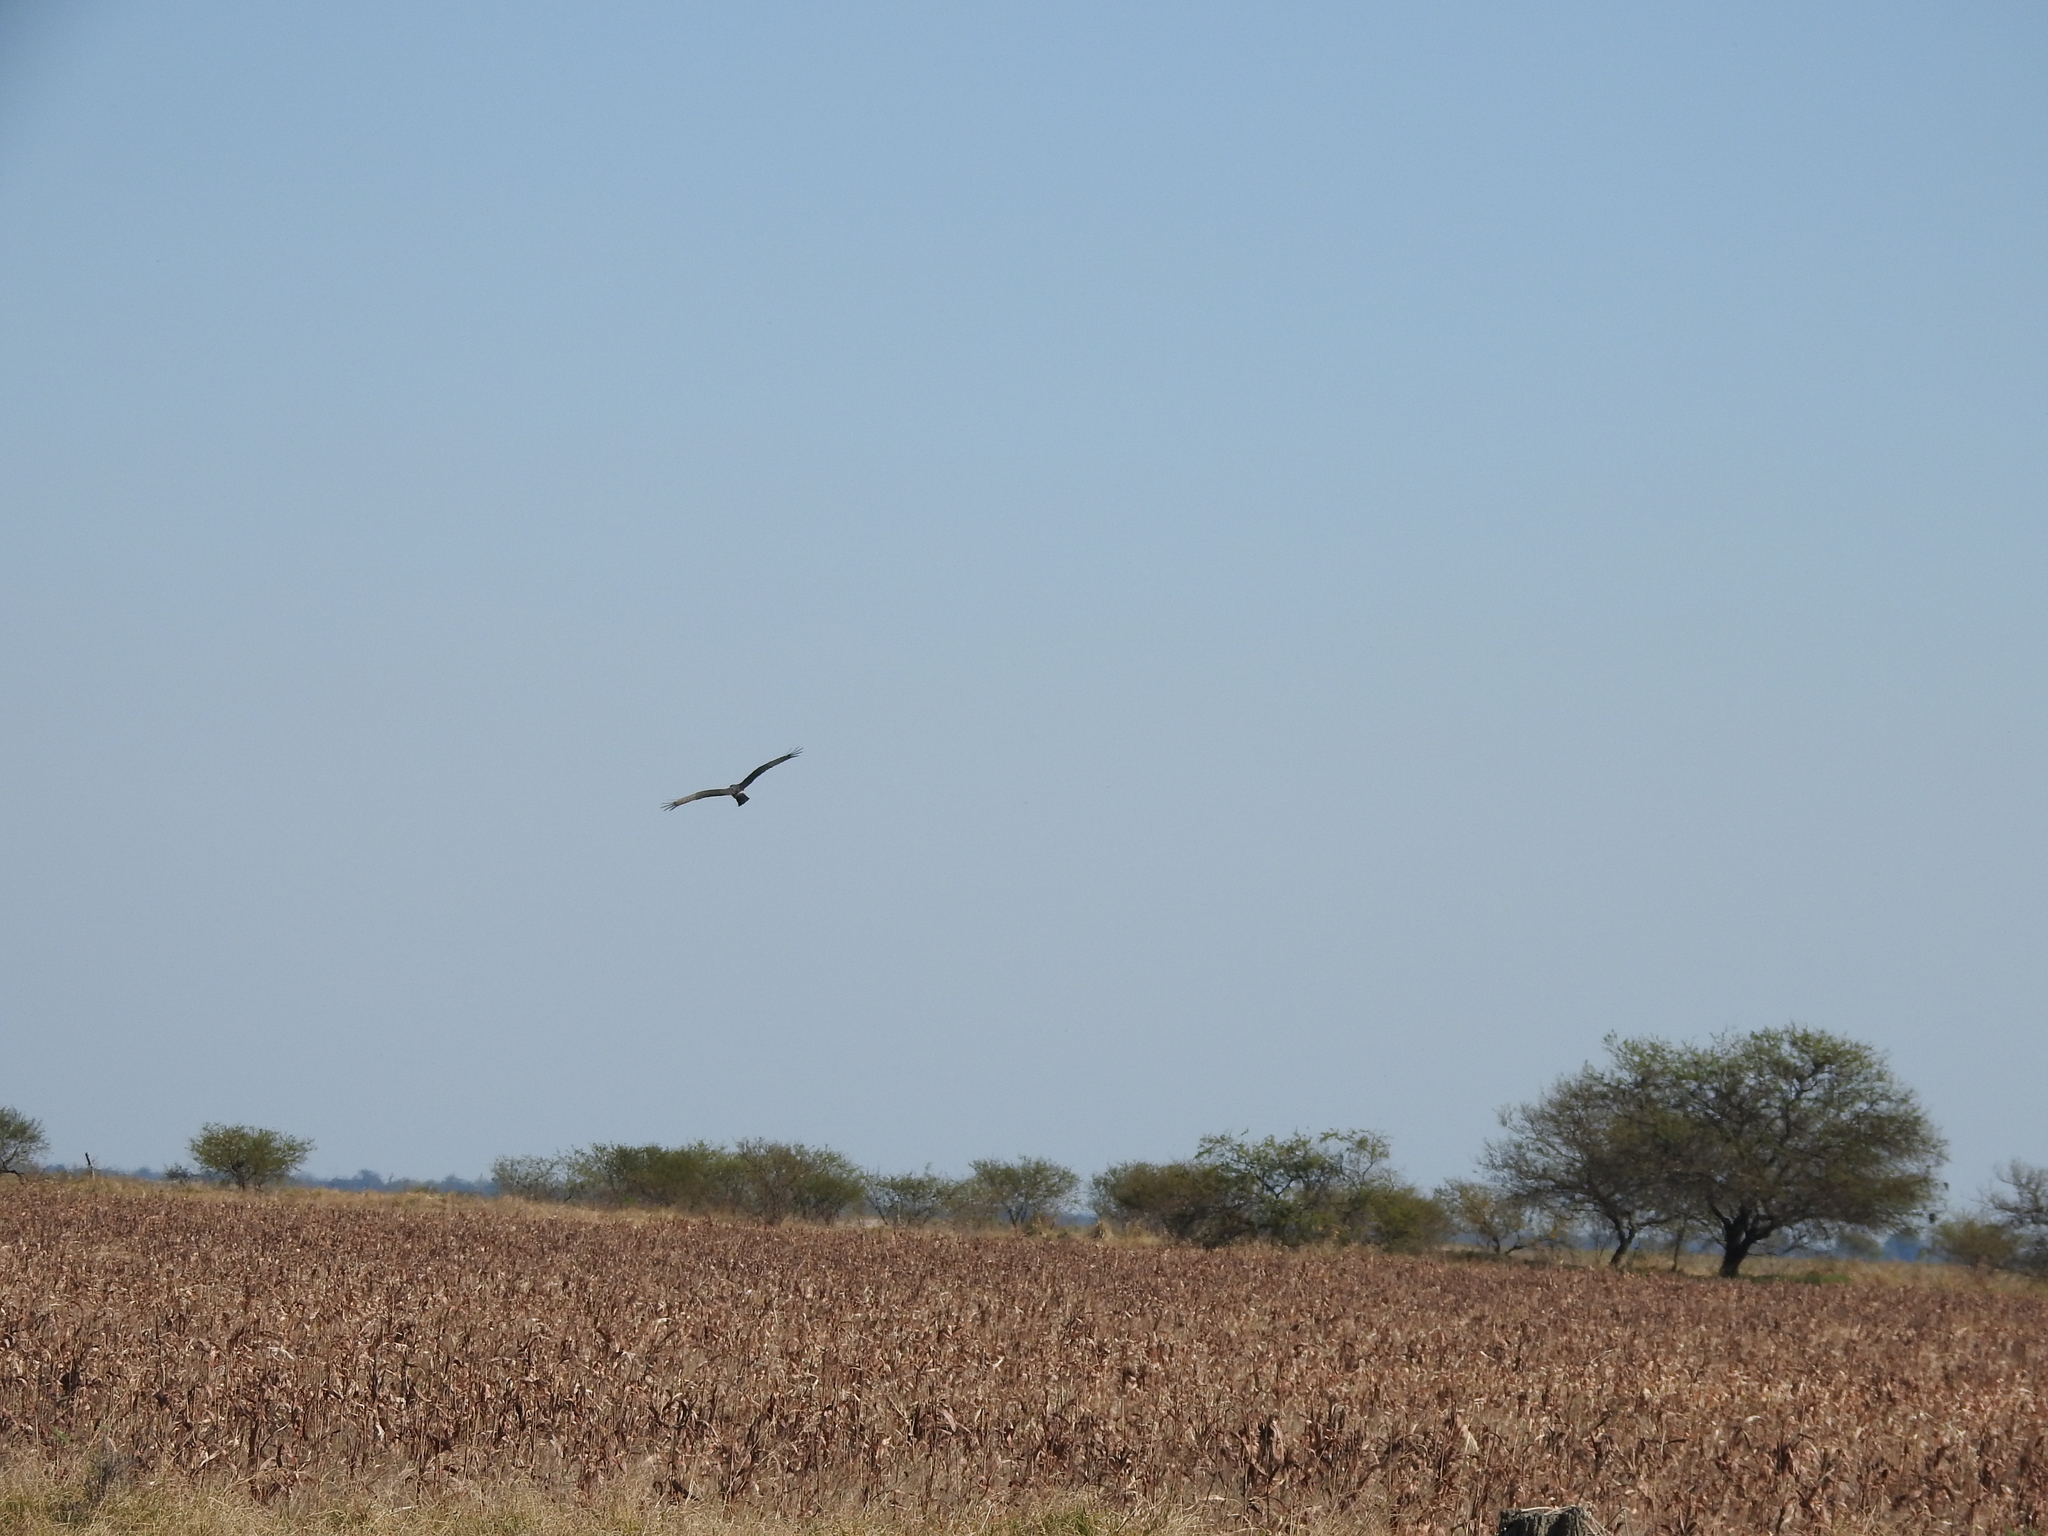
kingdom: Animalia
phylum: Chordata
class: Aves
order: Accipitriformes
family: Accipitridae
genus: Circus
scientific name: Circus buffoni
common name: Long-winged harrier
